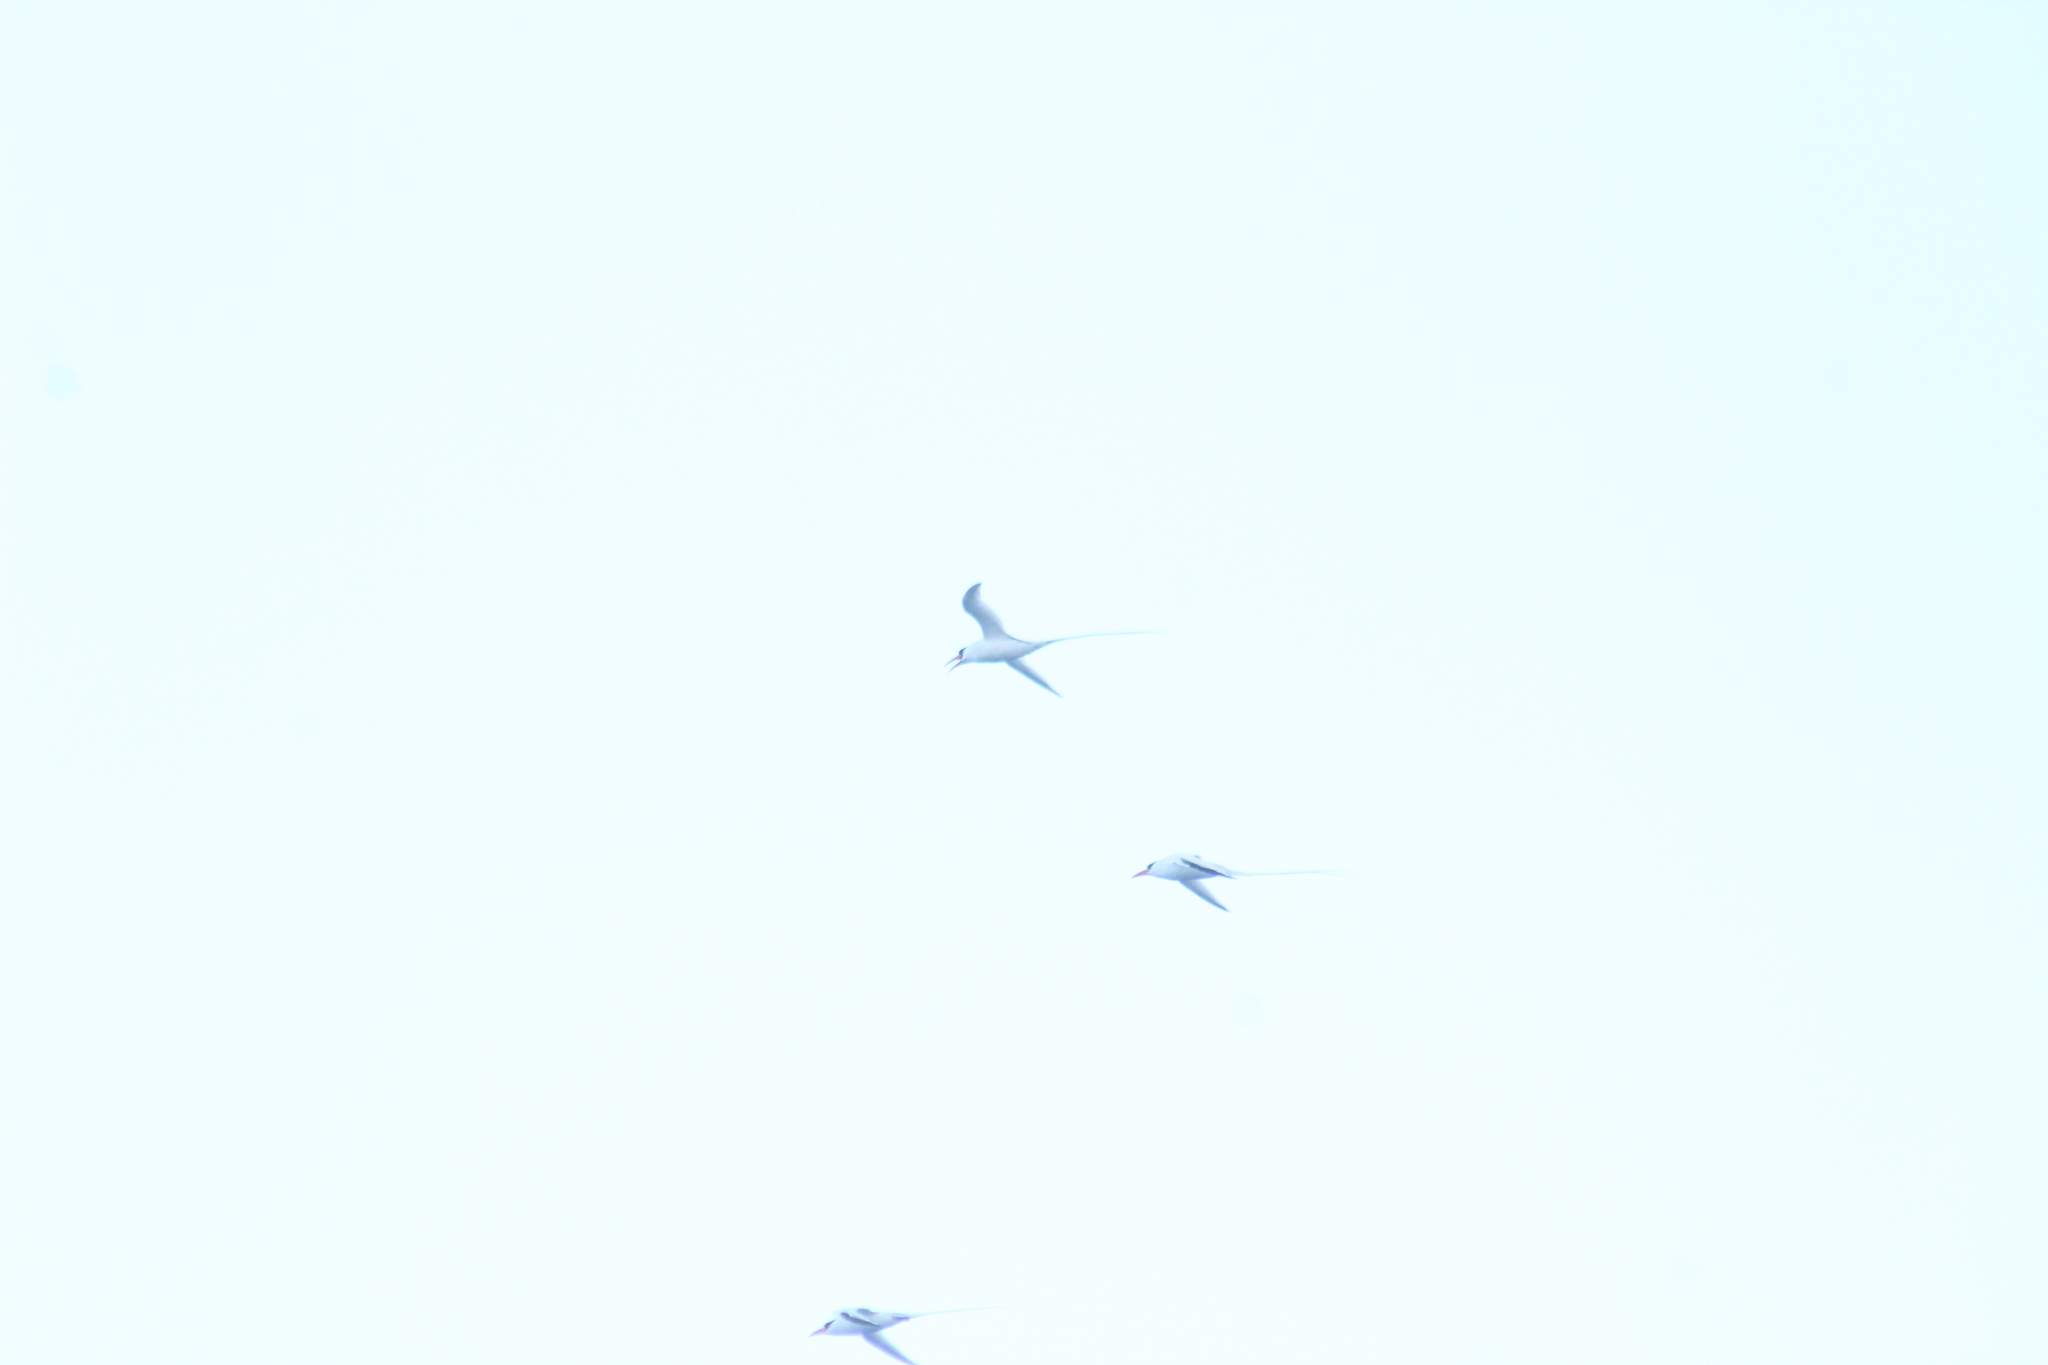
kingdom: Animalia
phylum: Chordata
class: Aves
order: Phaethontiformes
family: Phaethontidae
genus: Phaethon
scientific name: Phaethon aethereus
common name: Red-billed tropicbird
